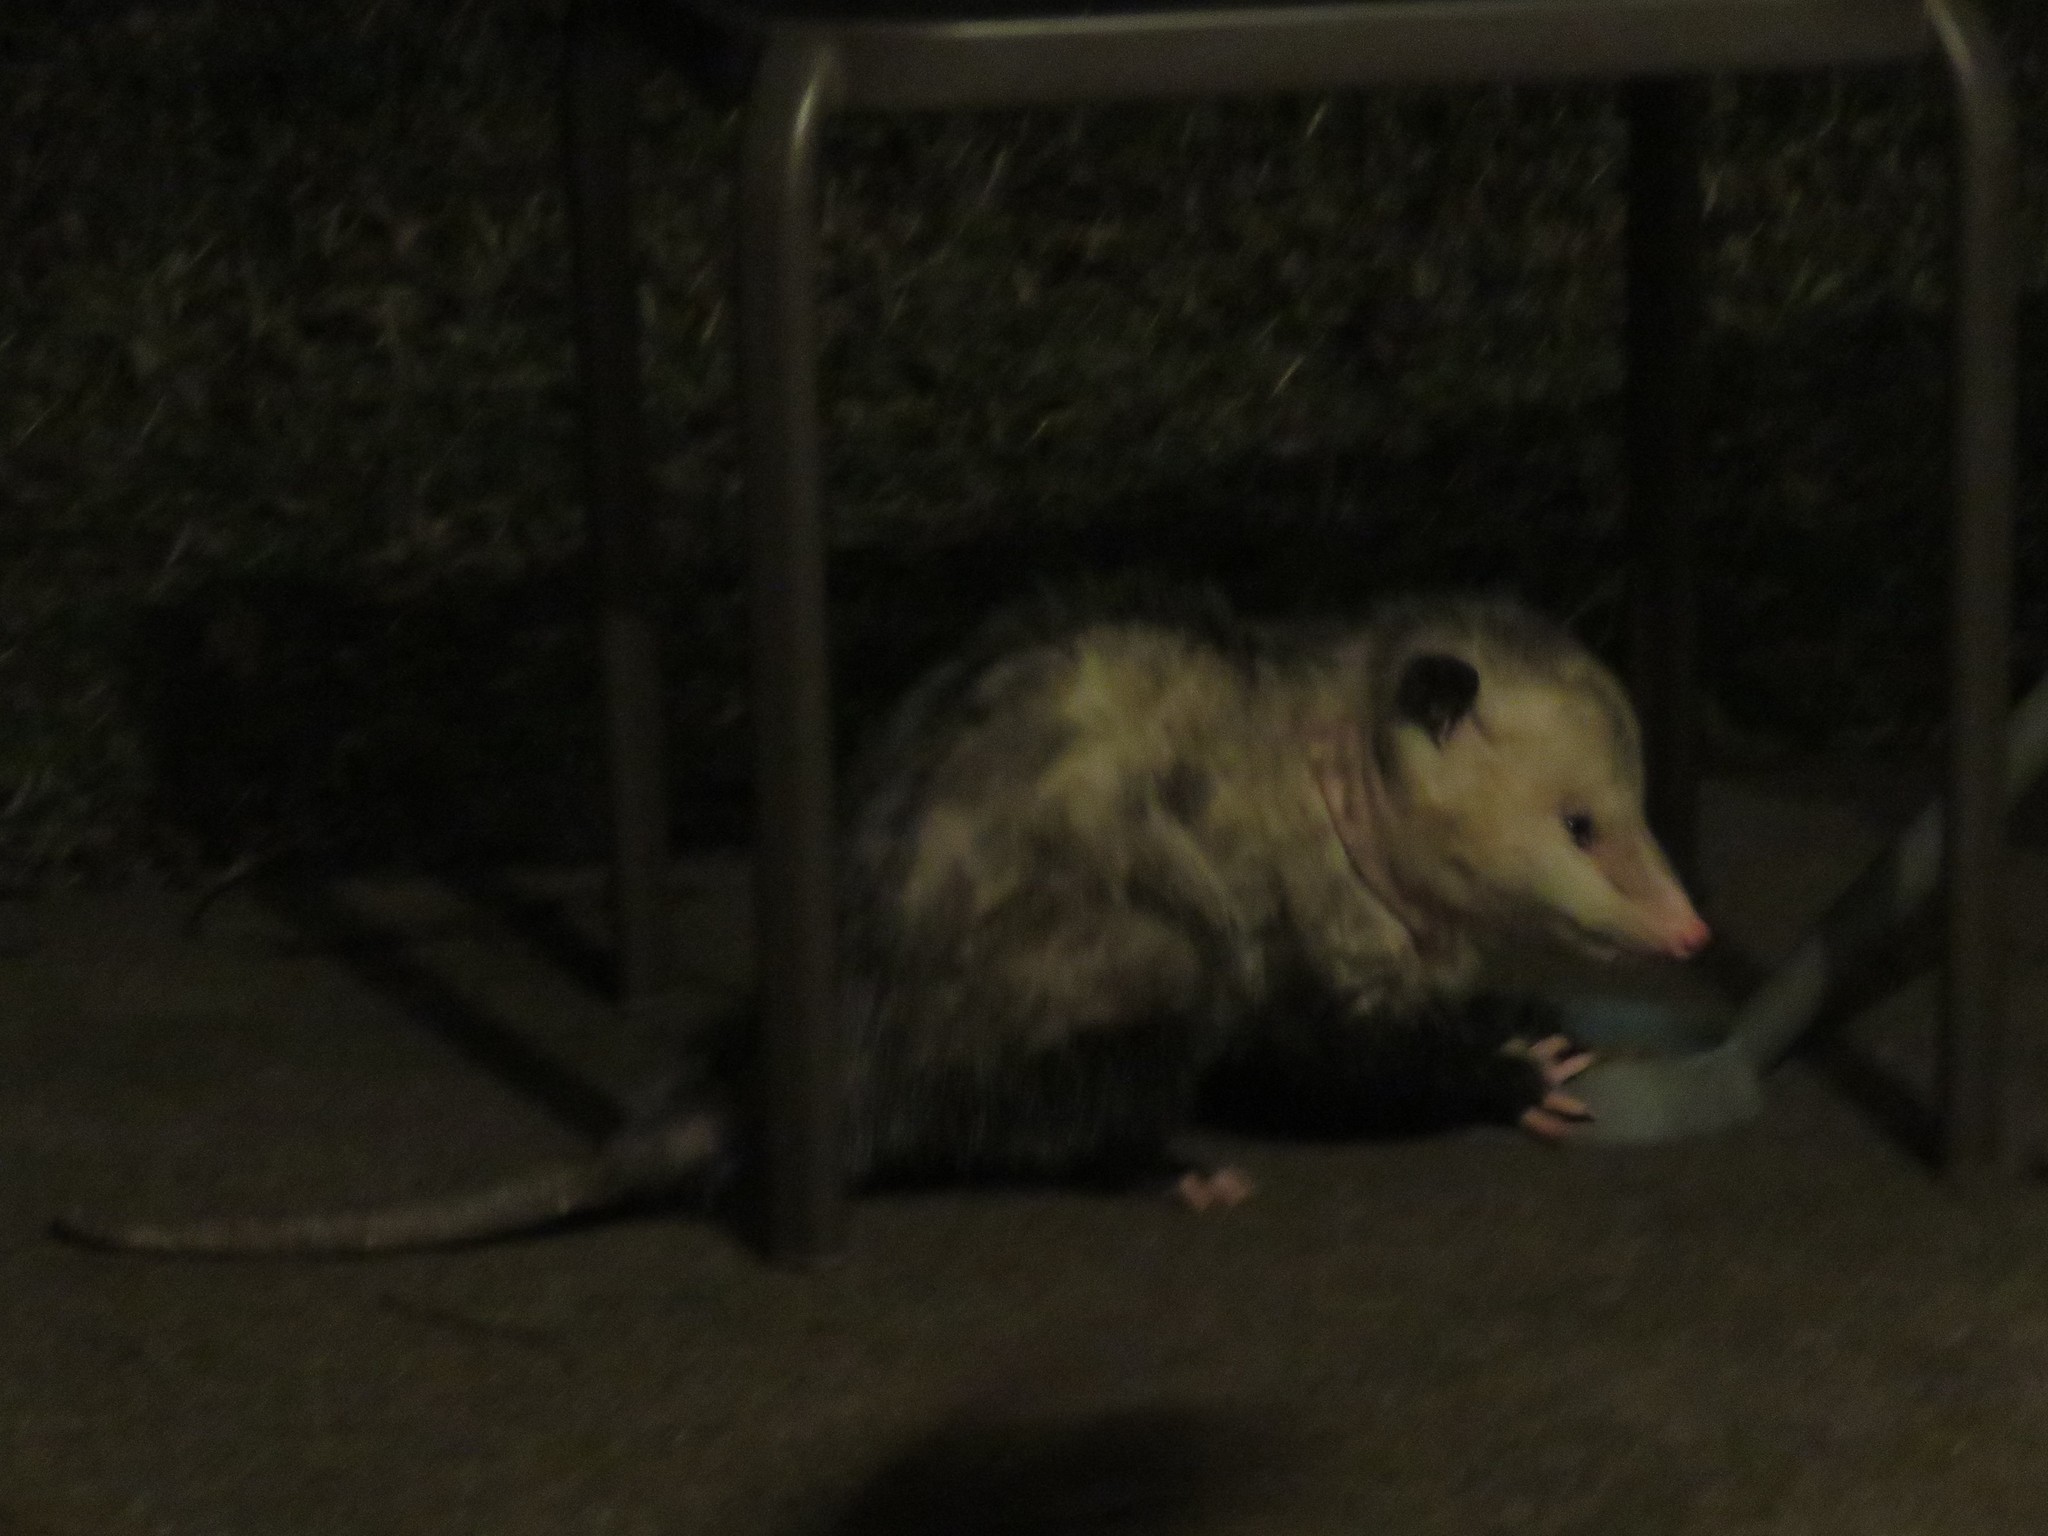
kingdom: Animalia
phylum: Chordata
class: Mammalia
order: Didelphimorphia
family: Didelphidae
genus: Didelphis
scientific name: Didelphis virginiana
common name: Virginia opossum
